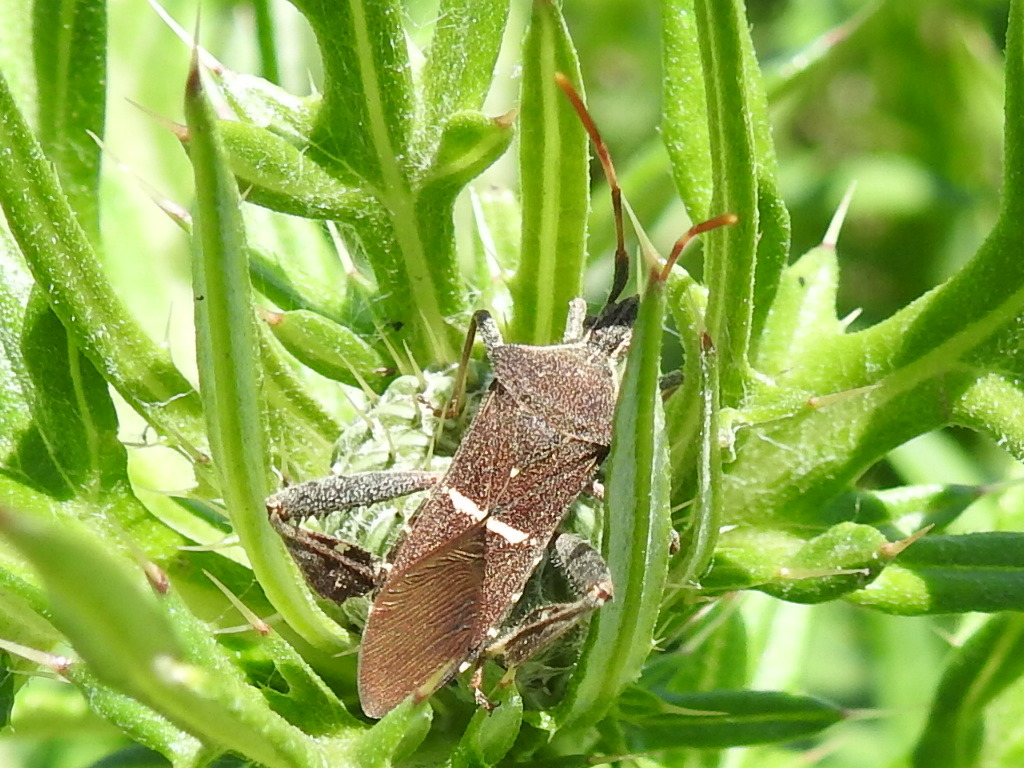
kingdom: Animalia
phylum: Arthropoda
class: Insecta
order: Hemiptera
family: Coreidae
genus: Leptoglossus
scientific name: Leptoglossus phyllopus
